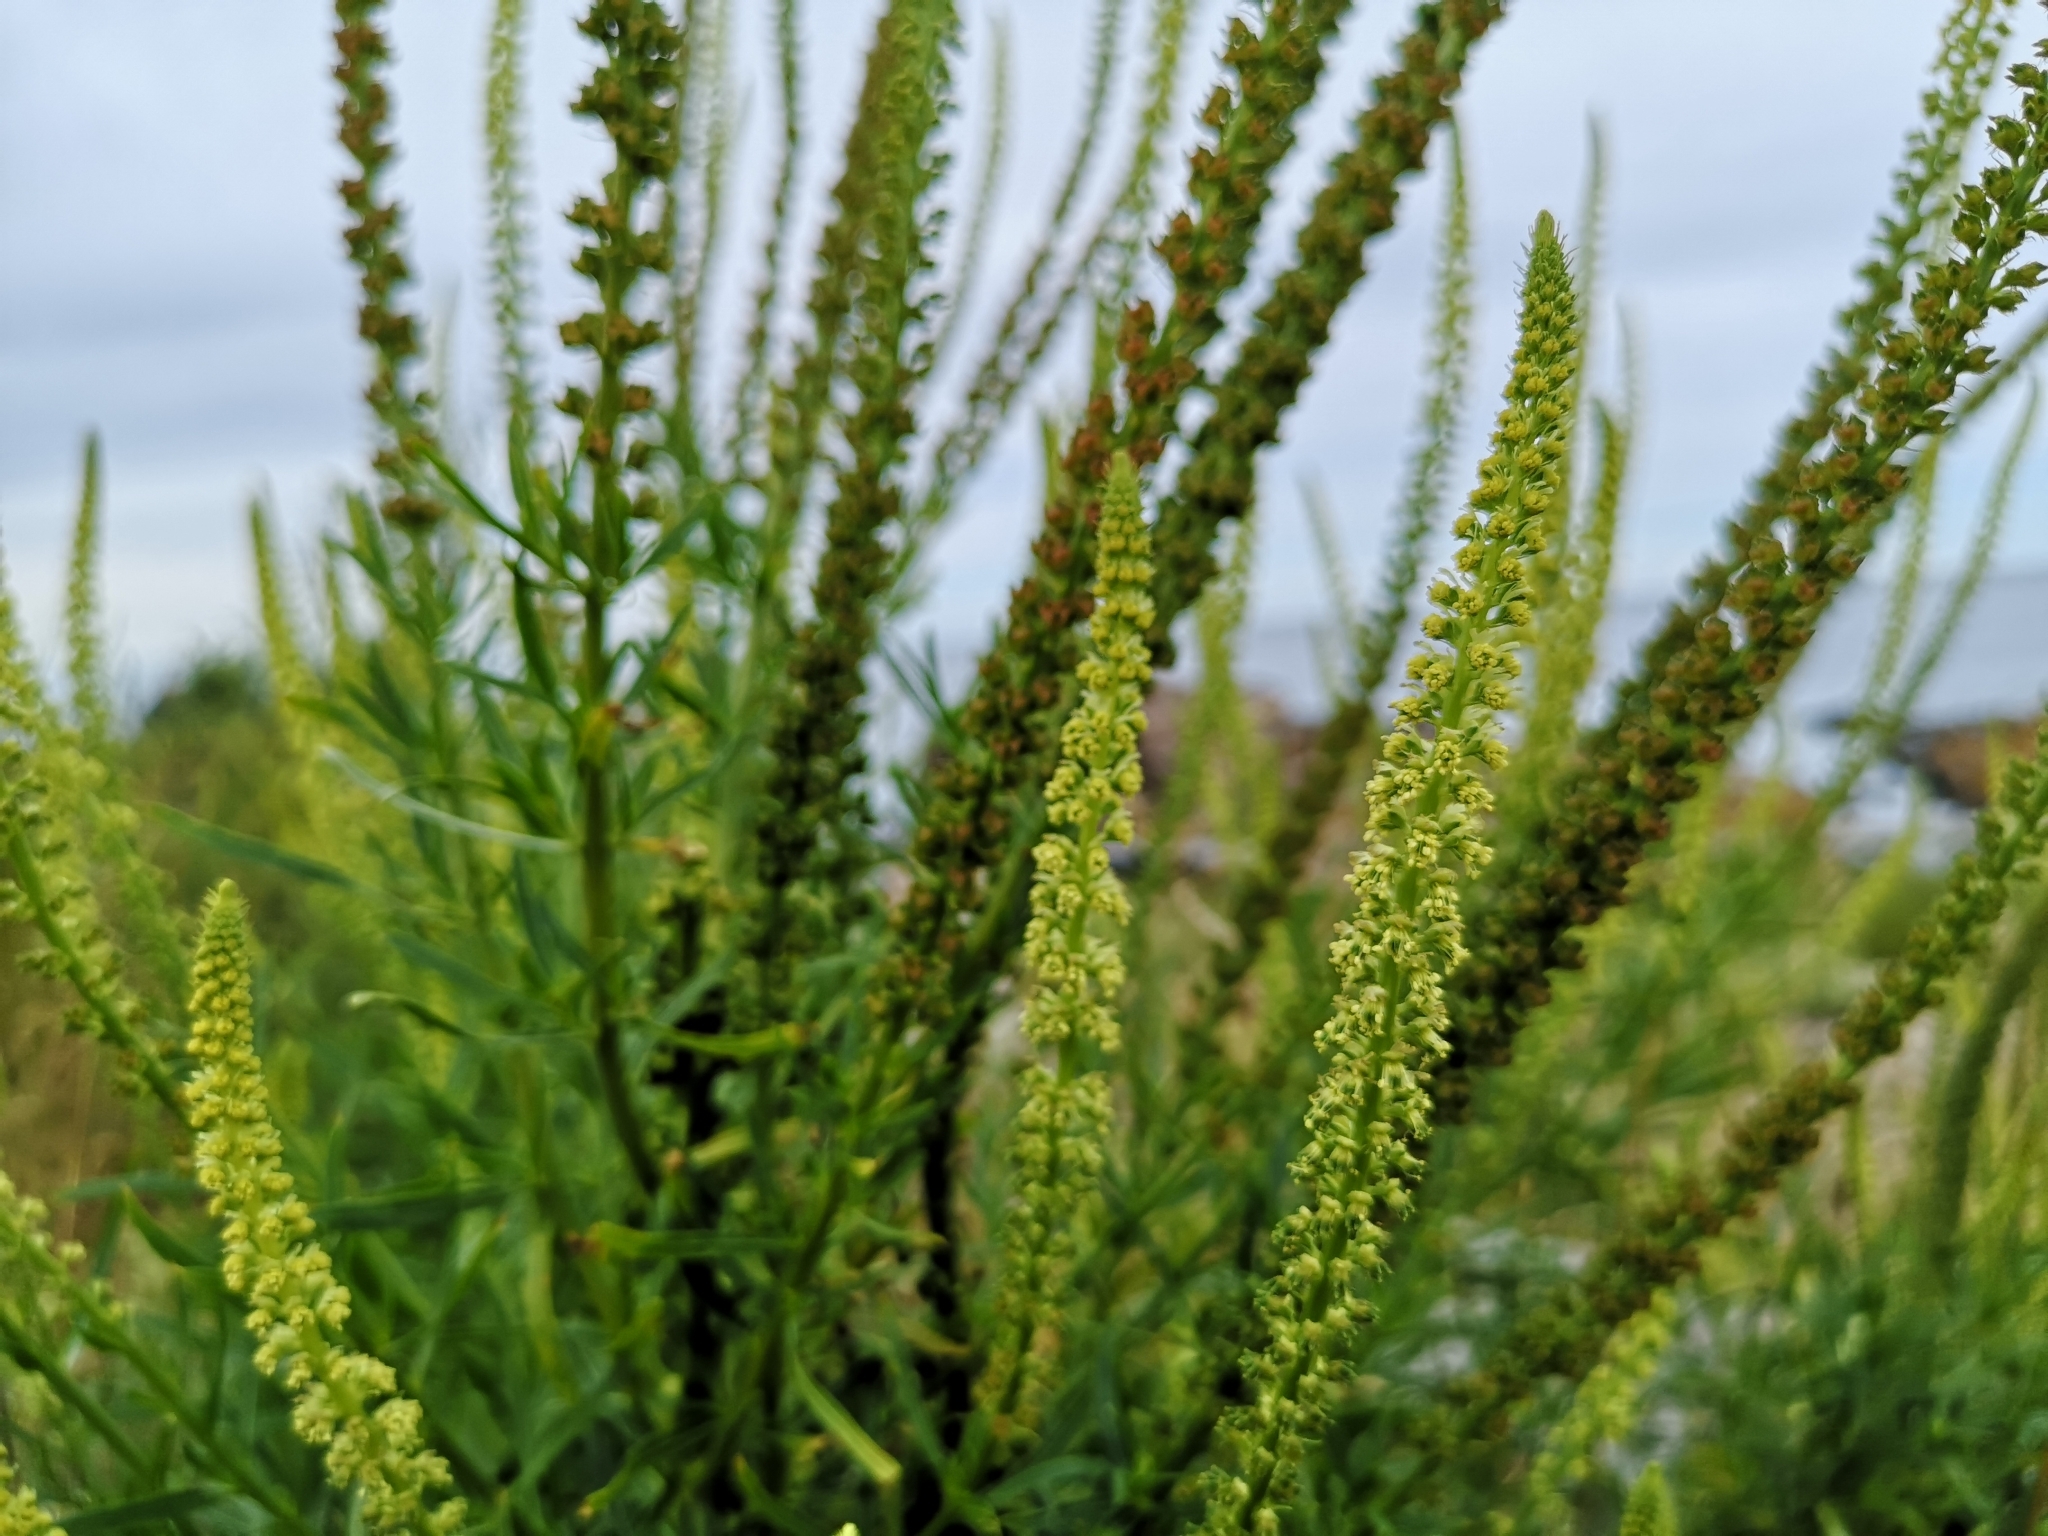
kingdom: Plantae
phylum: Tracheophyta
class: Magnoliopsida
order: Brassicales
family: Resedaceae
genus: Reseda
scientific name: Reseda luteola
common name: Weld
